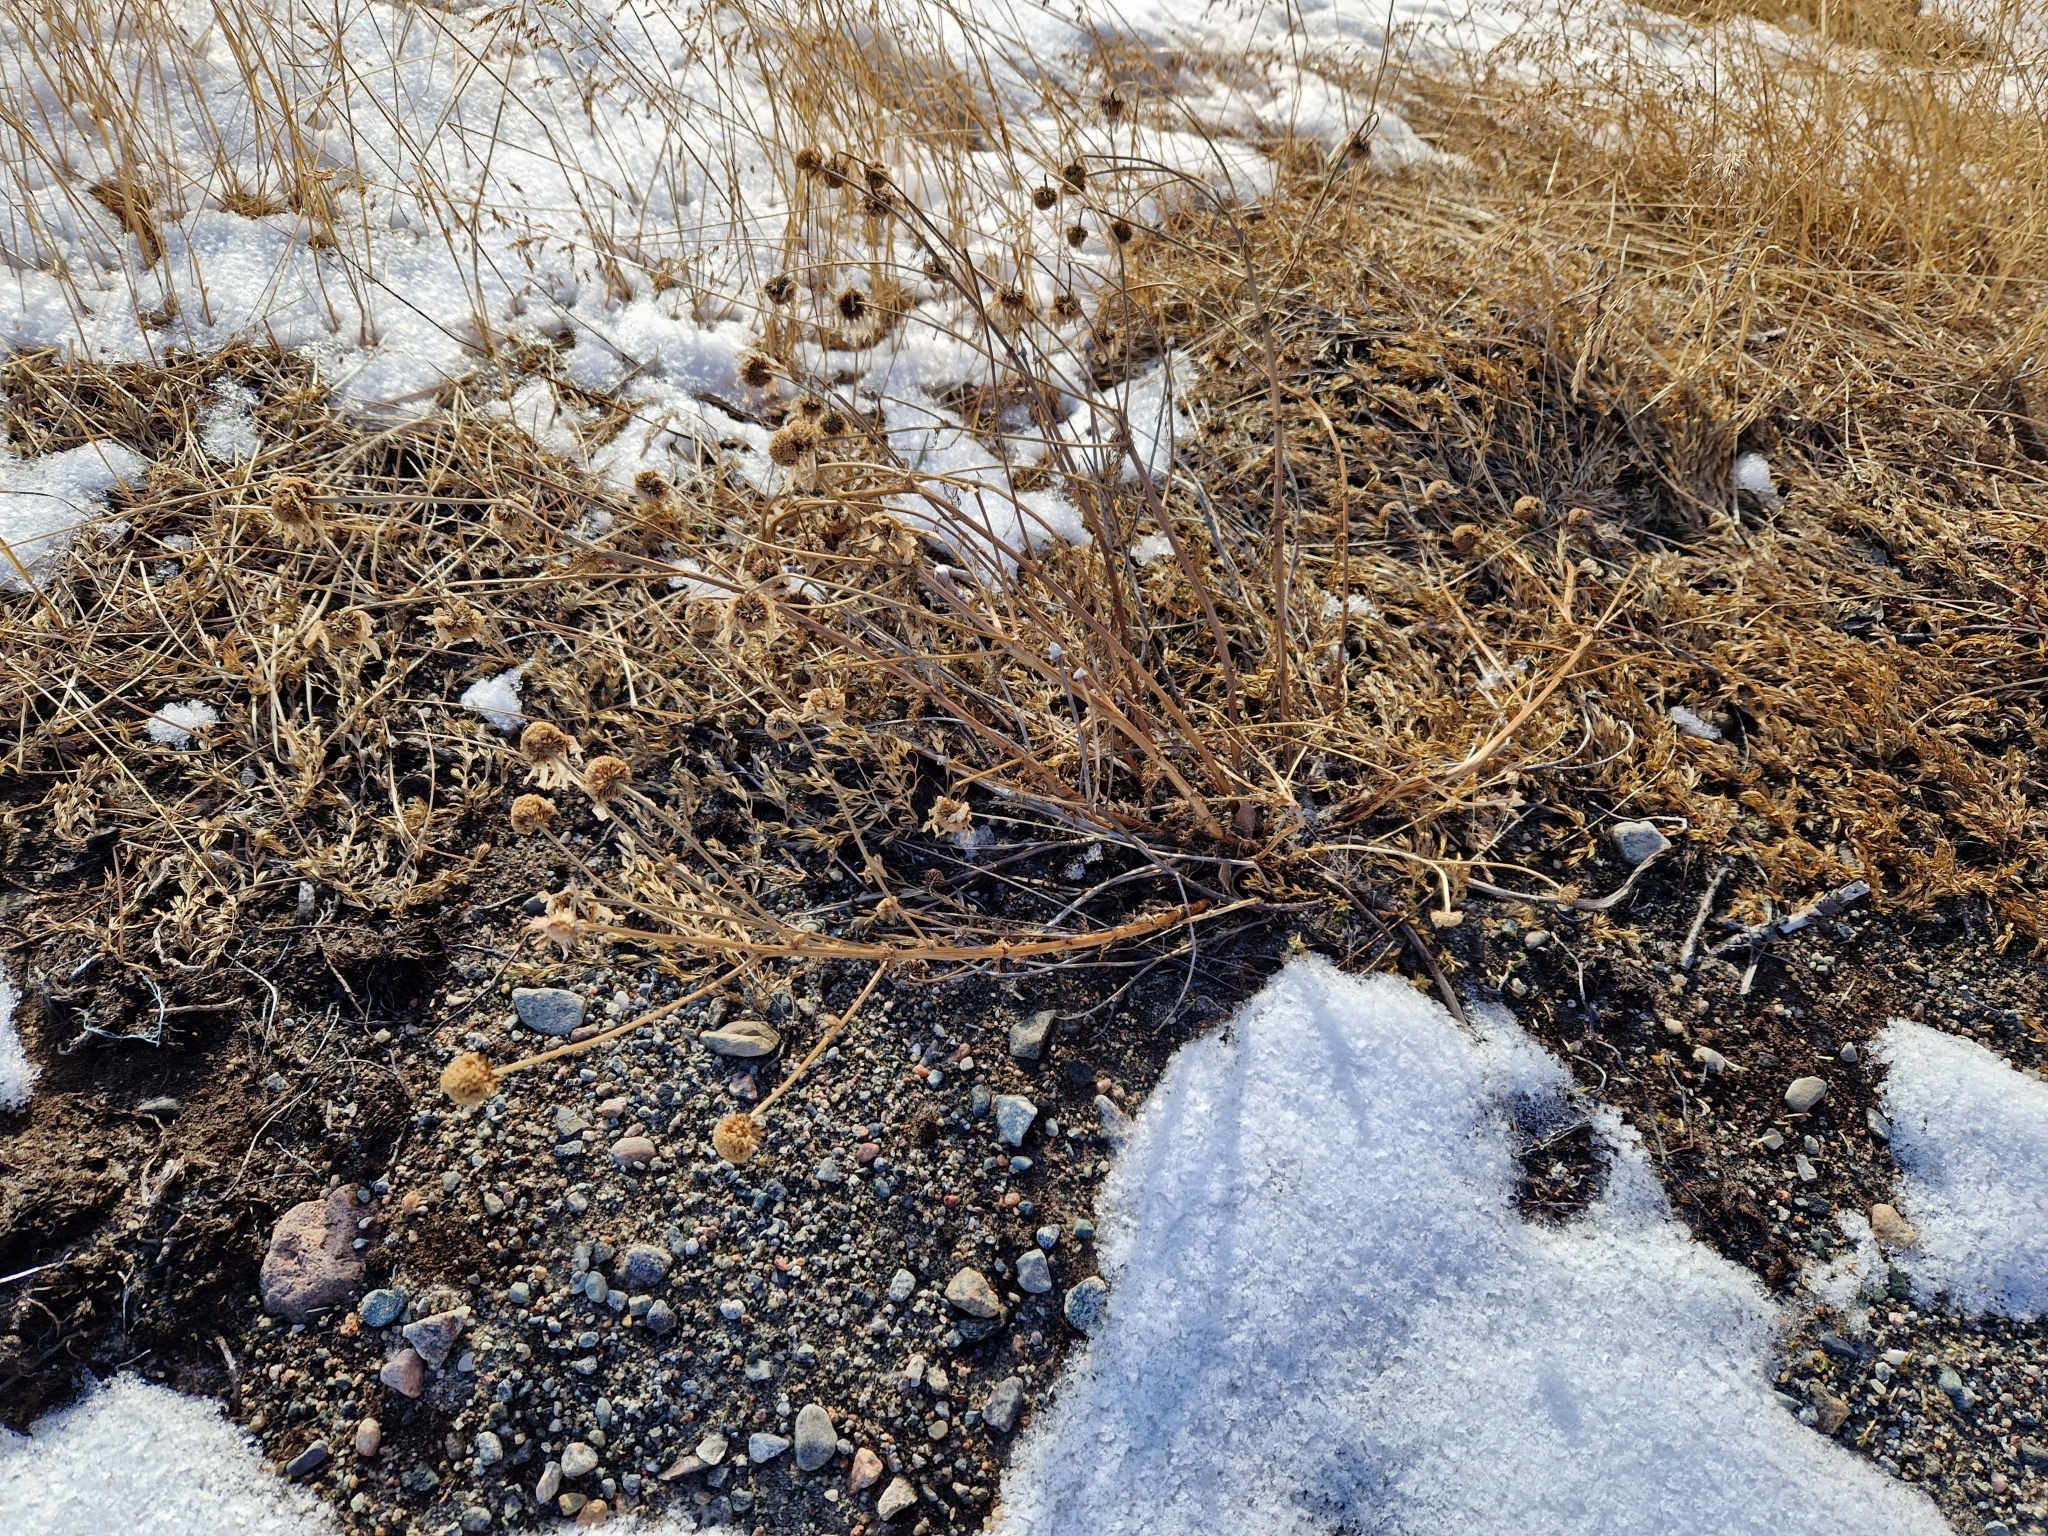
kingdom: Plantae
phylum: Tracheophyta
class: Magnoliopsida
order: Asterales
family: Asteraceae
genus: Tripleurospermum
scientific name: Tripleurospermum maritimum
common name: Sea mayweed
